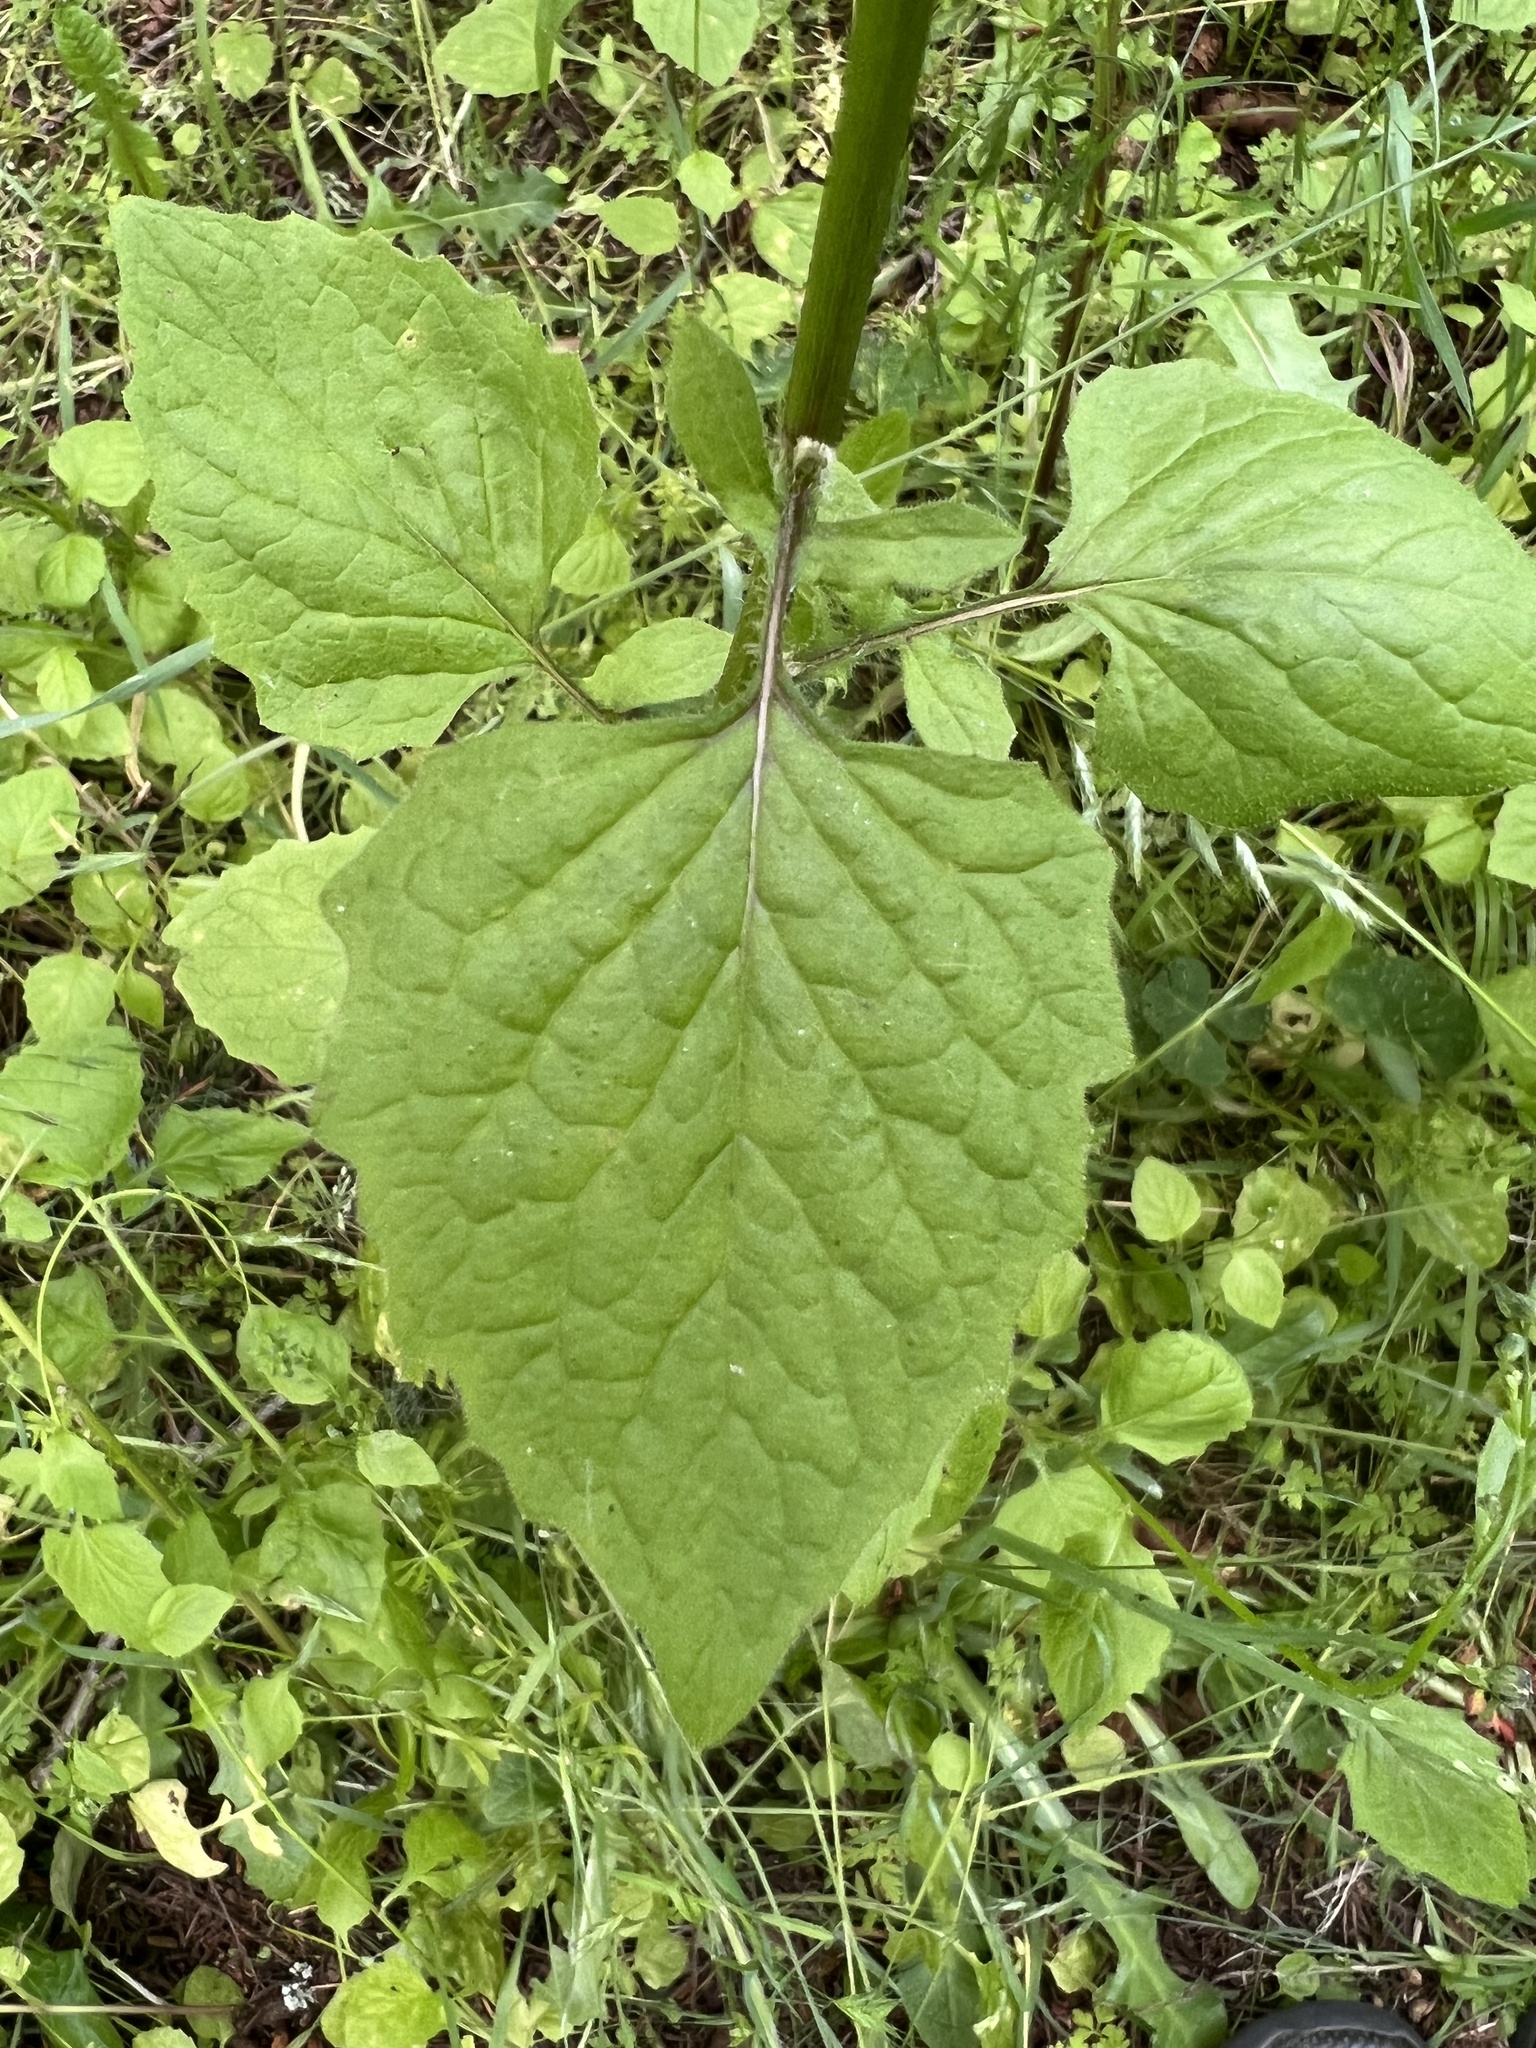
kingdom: Plantae
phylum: Tracheophyta
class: Magnoliopsida
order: Asterales
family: Asteraceae
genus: Lapsana
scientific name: Lapsana communis
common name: Nipplewort
